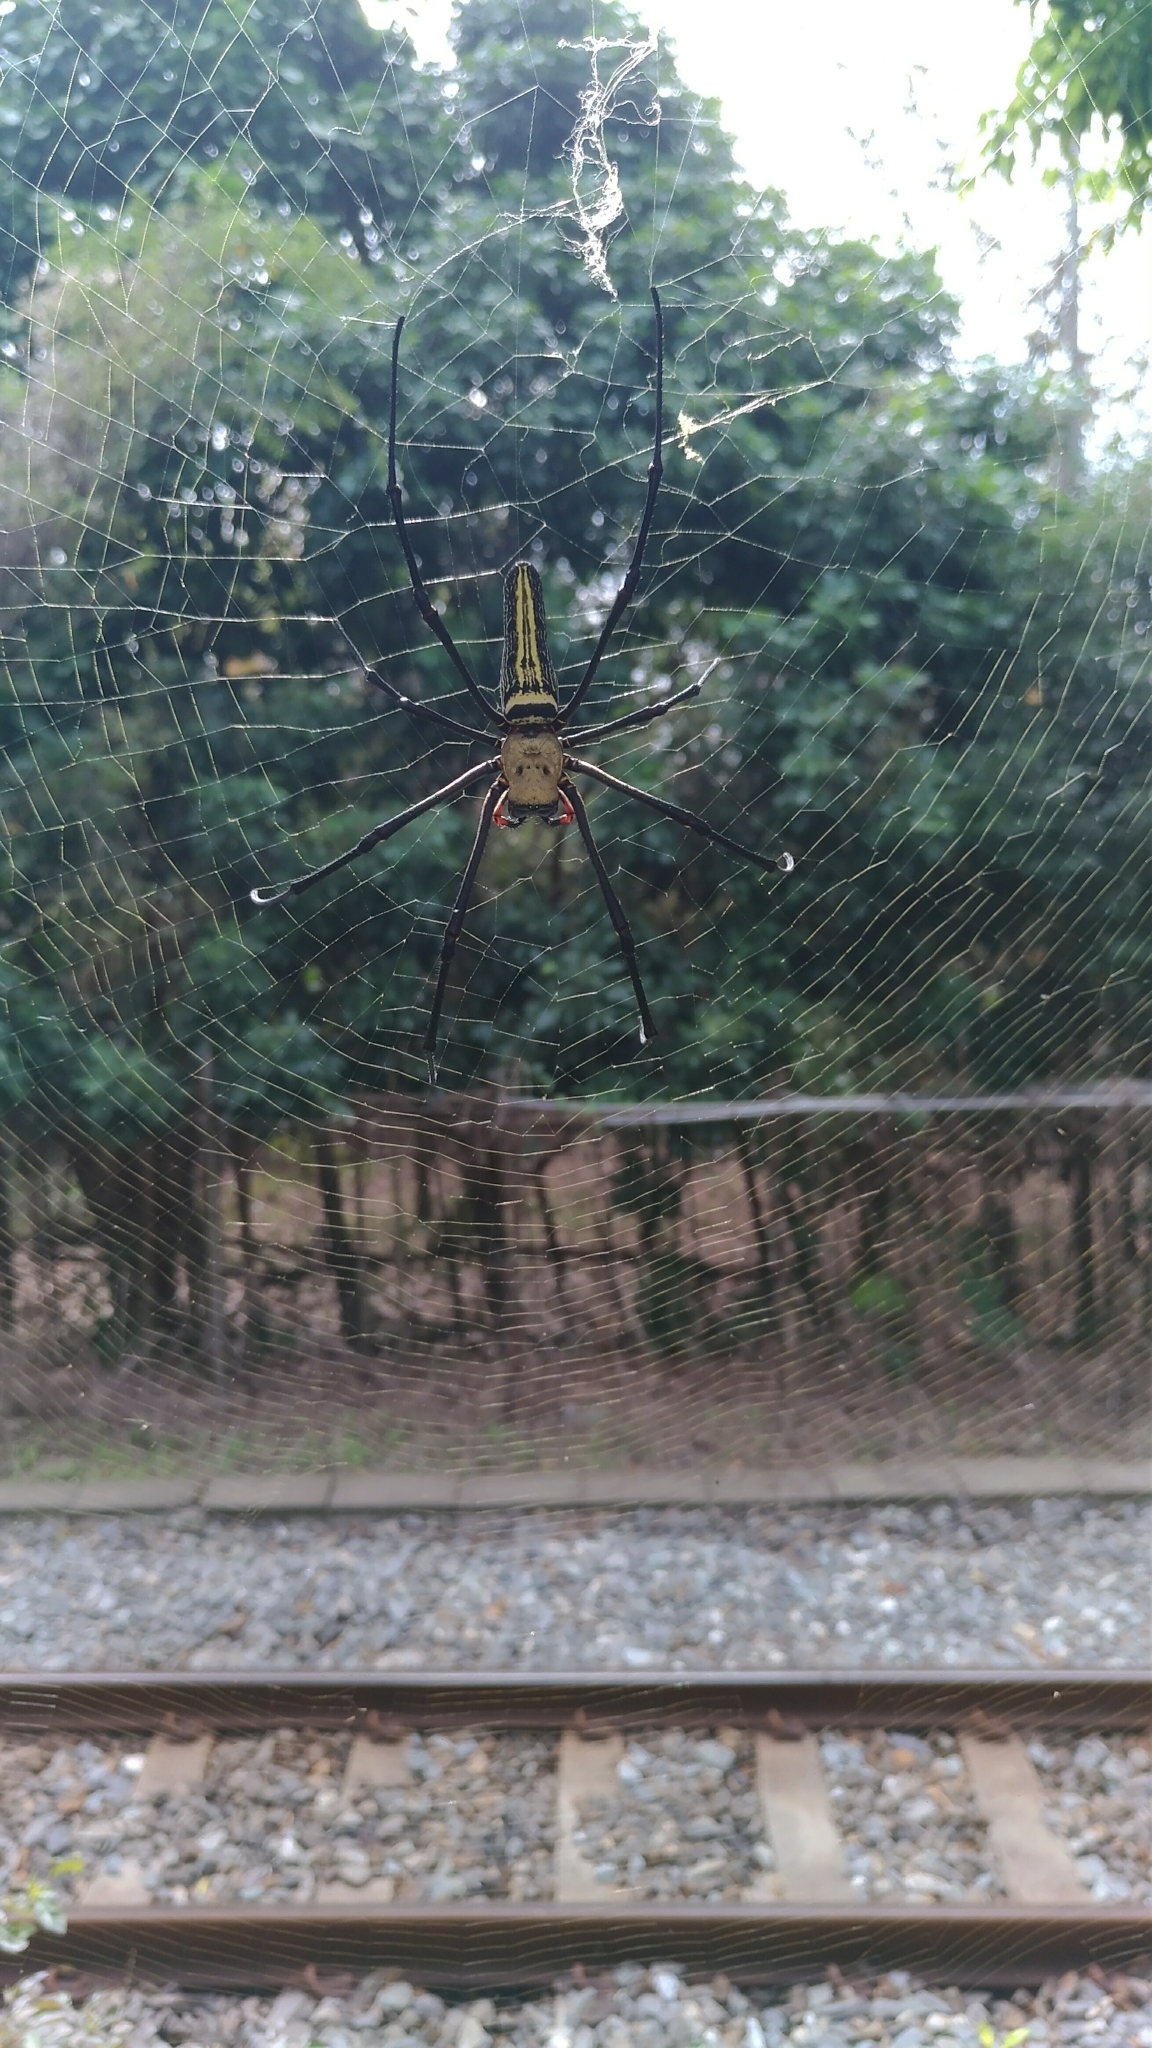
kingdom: Animalia
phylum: Arthropoda
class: Arachnida
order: Araneae
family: Araneidae
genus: Nephila
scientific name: Nephila pilipes
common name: Giant golden orb weaver
